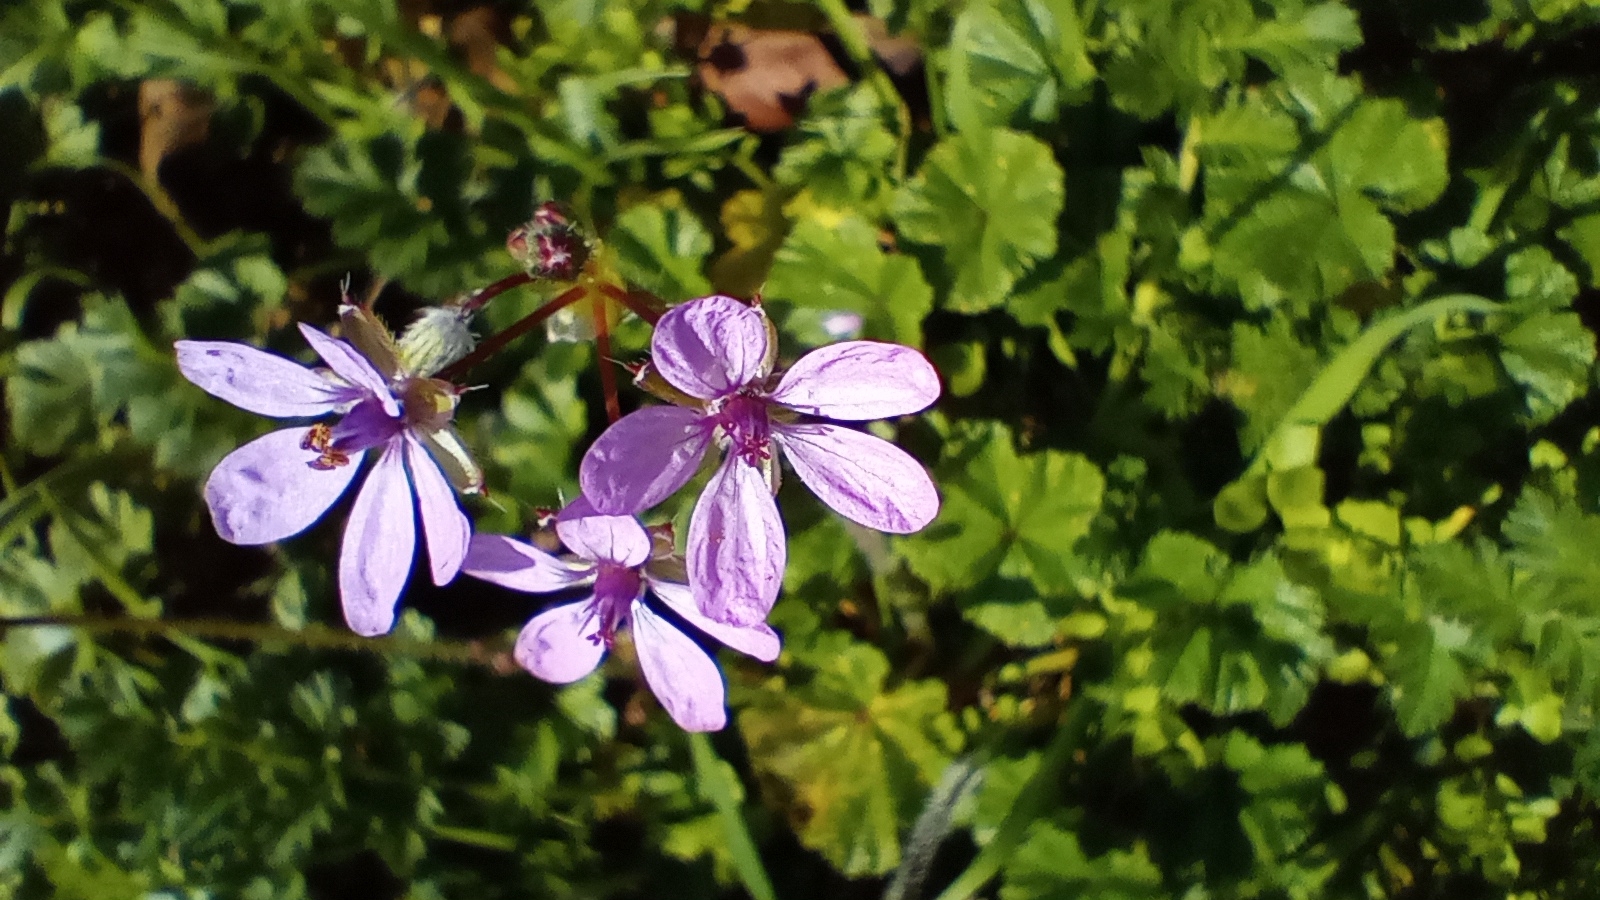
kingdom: Plantae
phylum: Tracheophyta
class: Magnoliopsida
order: Geraniales
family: Geraniaceae
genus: Erodium
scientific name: Erodium cicutarium
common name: Common stork's-bill
